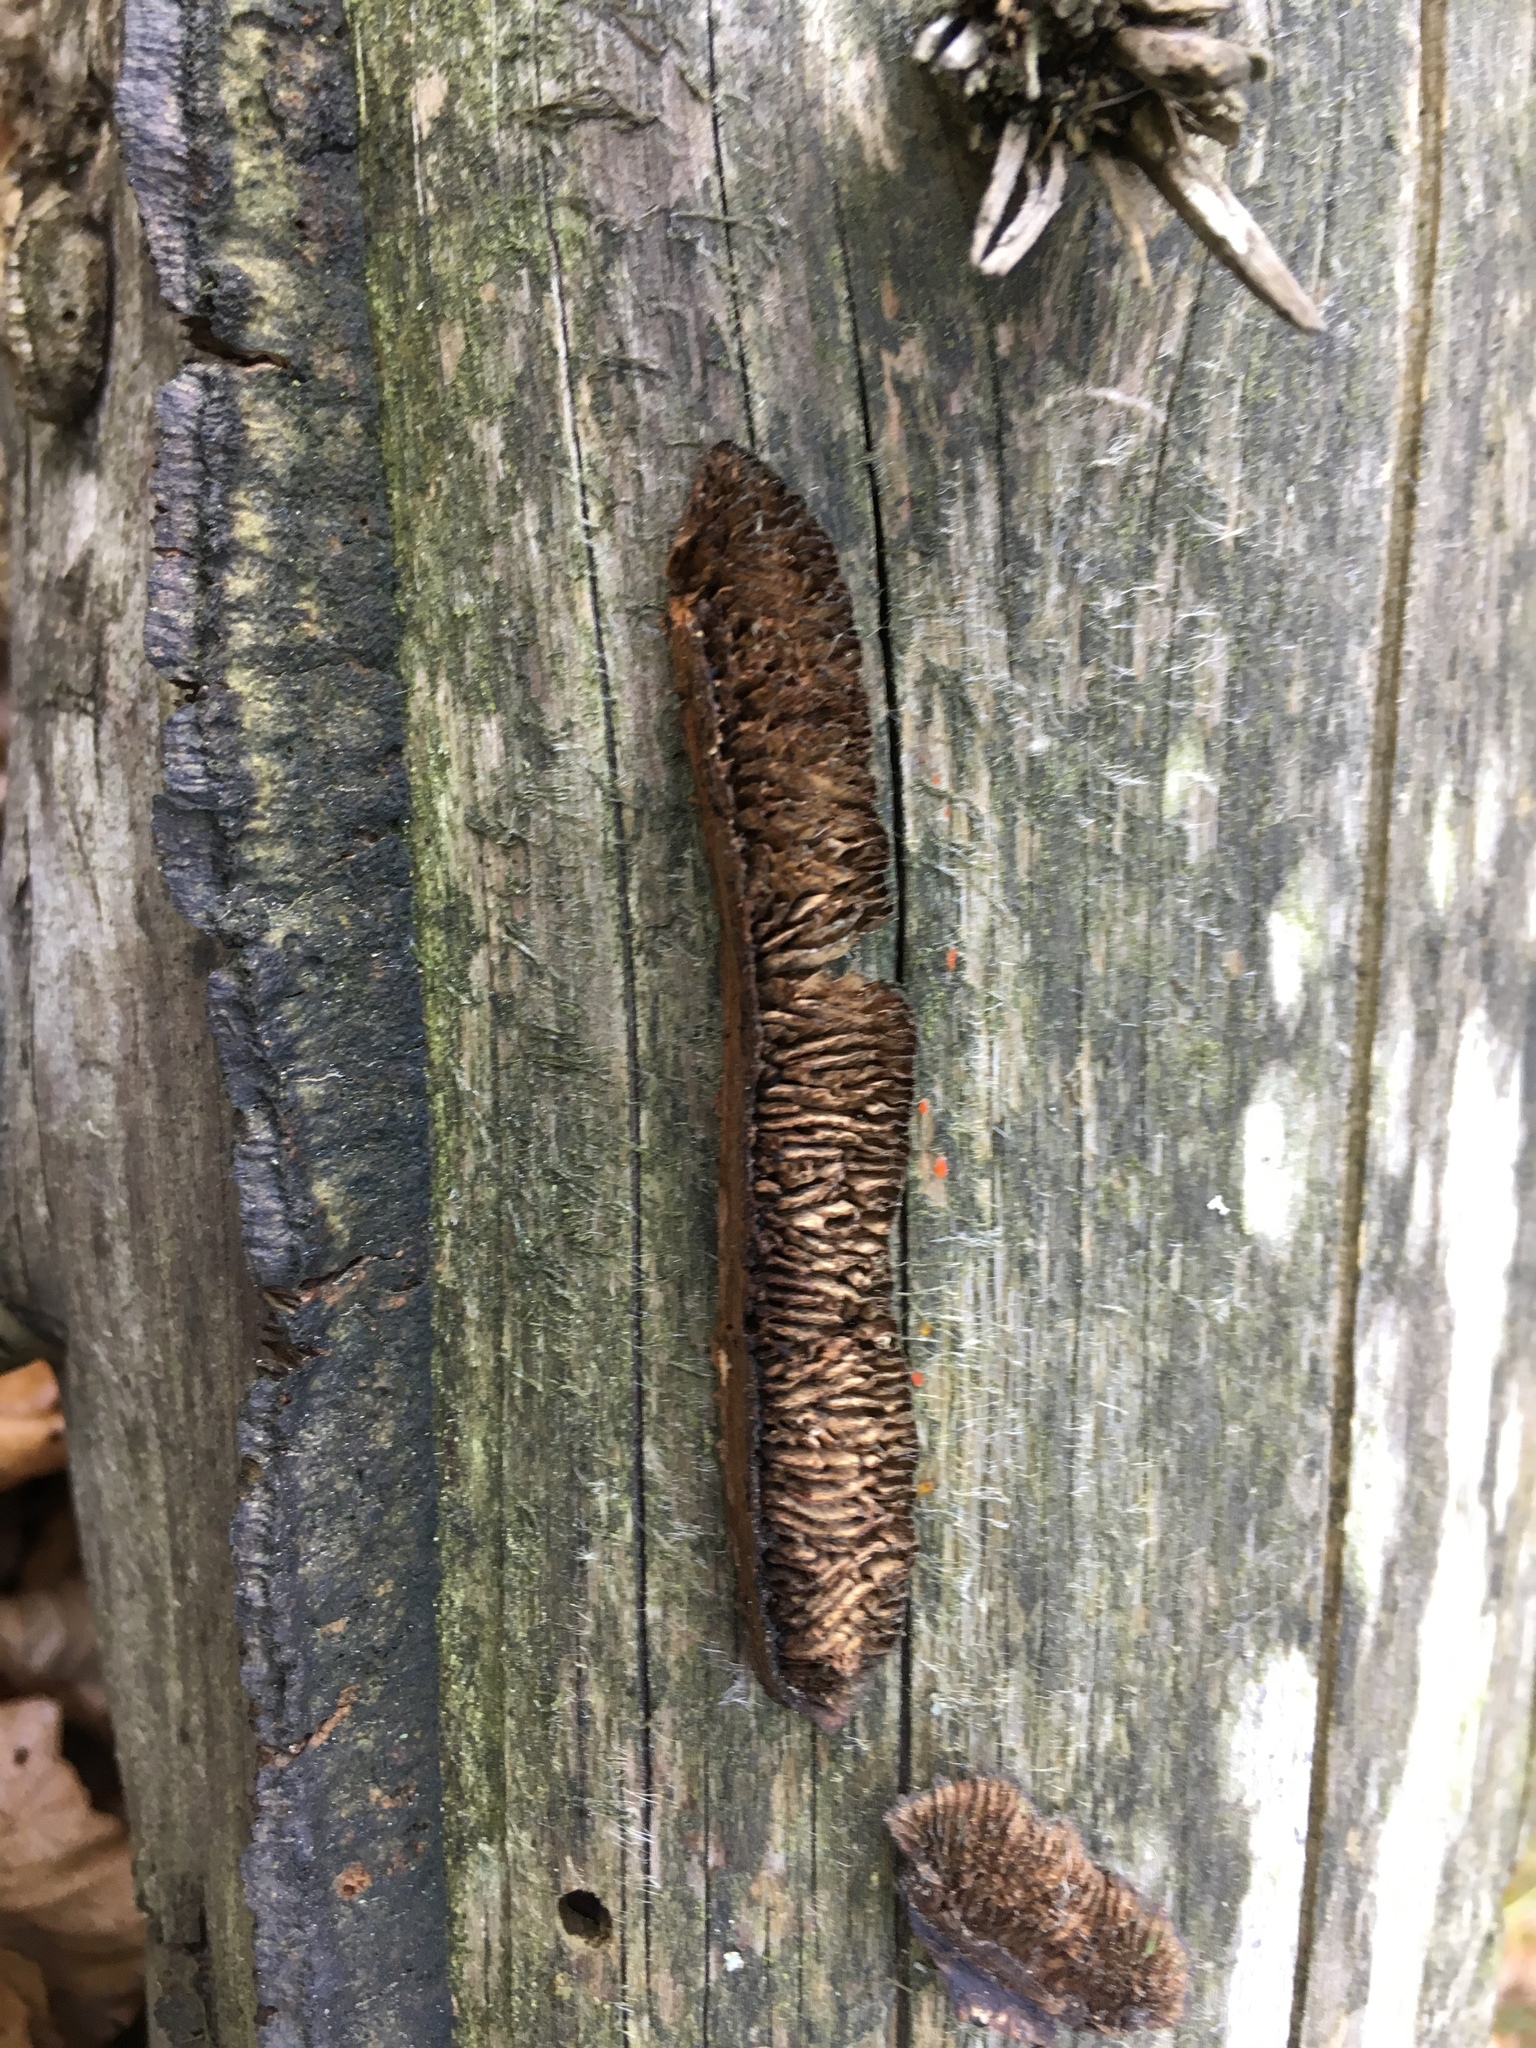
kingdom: Fungi
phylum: Basidiomycota
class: Agaricomycetes
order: Gloeophyllales
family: Gloeophyllaceae
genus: Gloeophyllum
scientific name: Gloeophyllum abietinum
